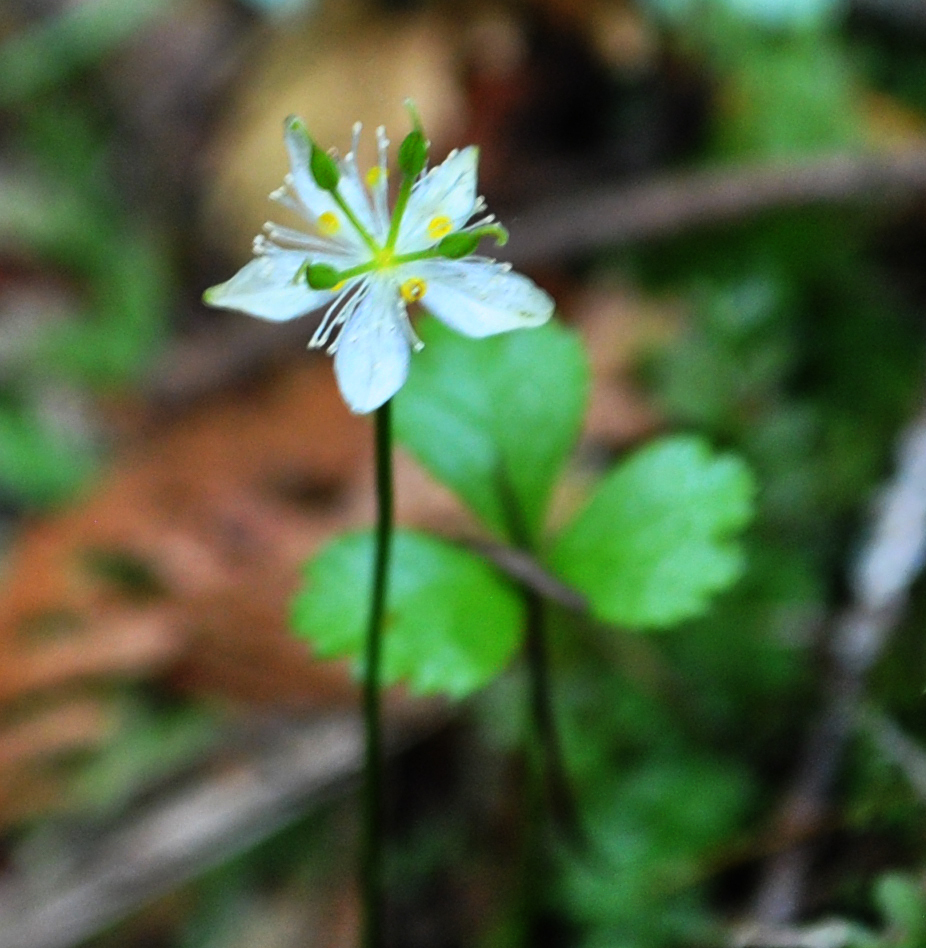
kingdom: Plantae
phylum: Tracheophyta
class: Magnoliopsida
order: Ranunculales
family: Ranunculaceae
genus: Coptis
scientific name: Coptis trifolia
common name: Canker-root
